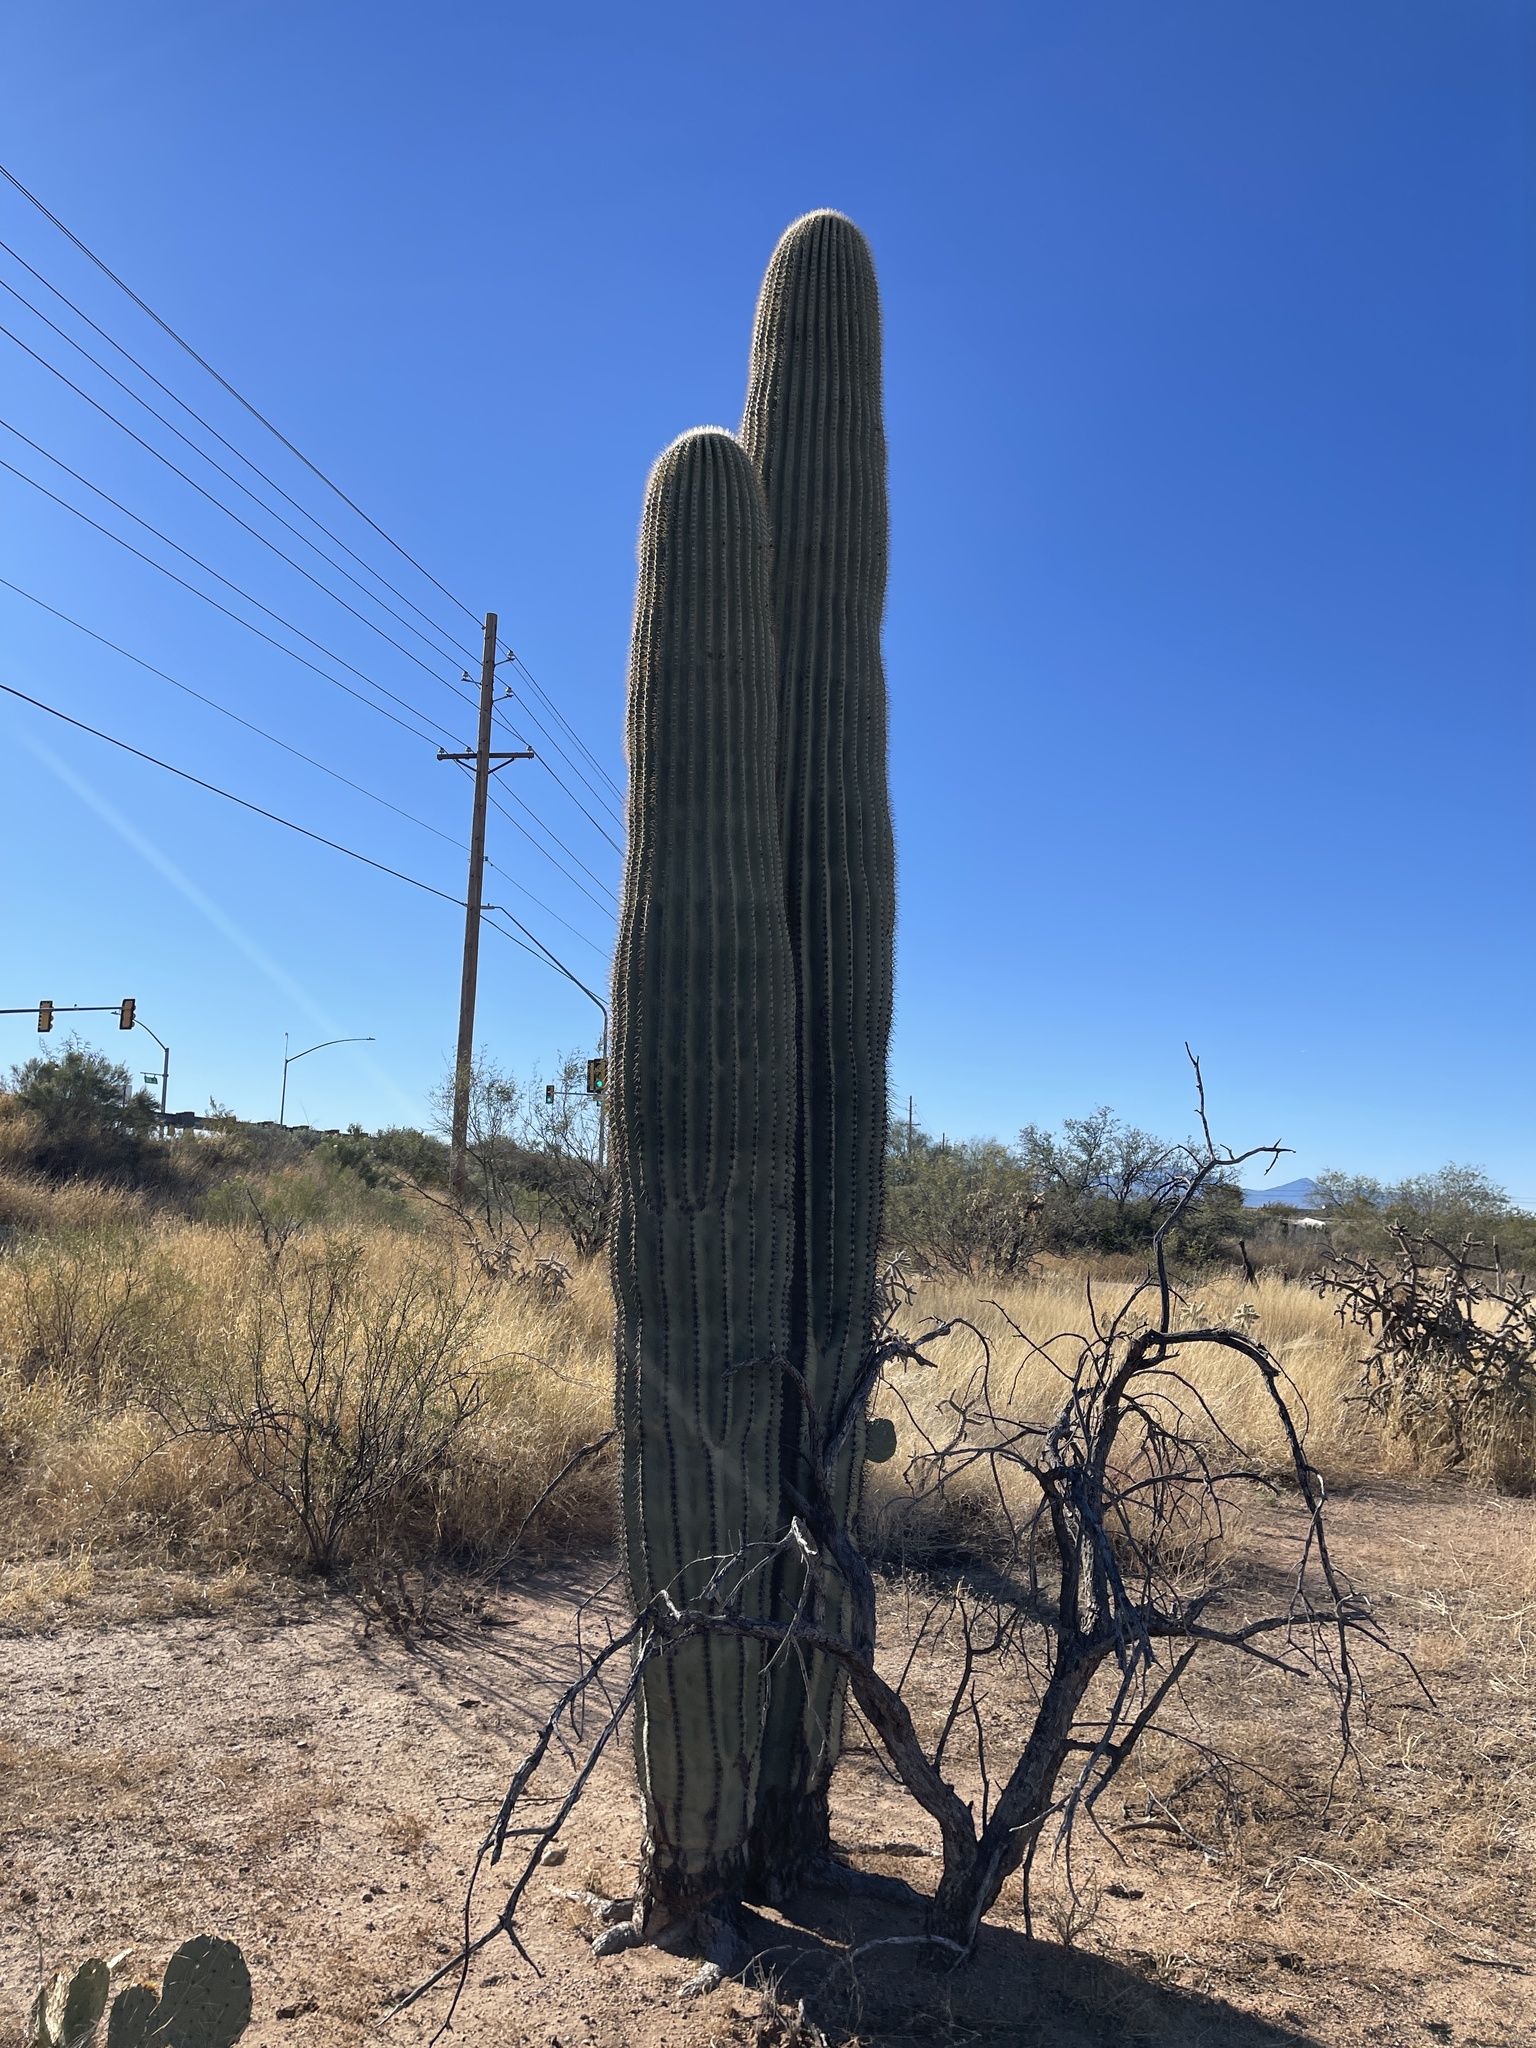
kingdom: Plantae
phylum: Tracheophyta
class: Magnoliopsida
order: Caryophyllales
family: Cactaceae
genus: Carnegiea
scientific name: Carnegiea gigantea
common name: Saguaro
